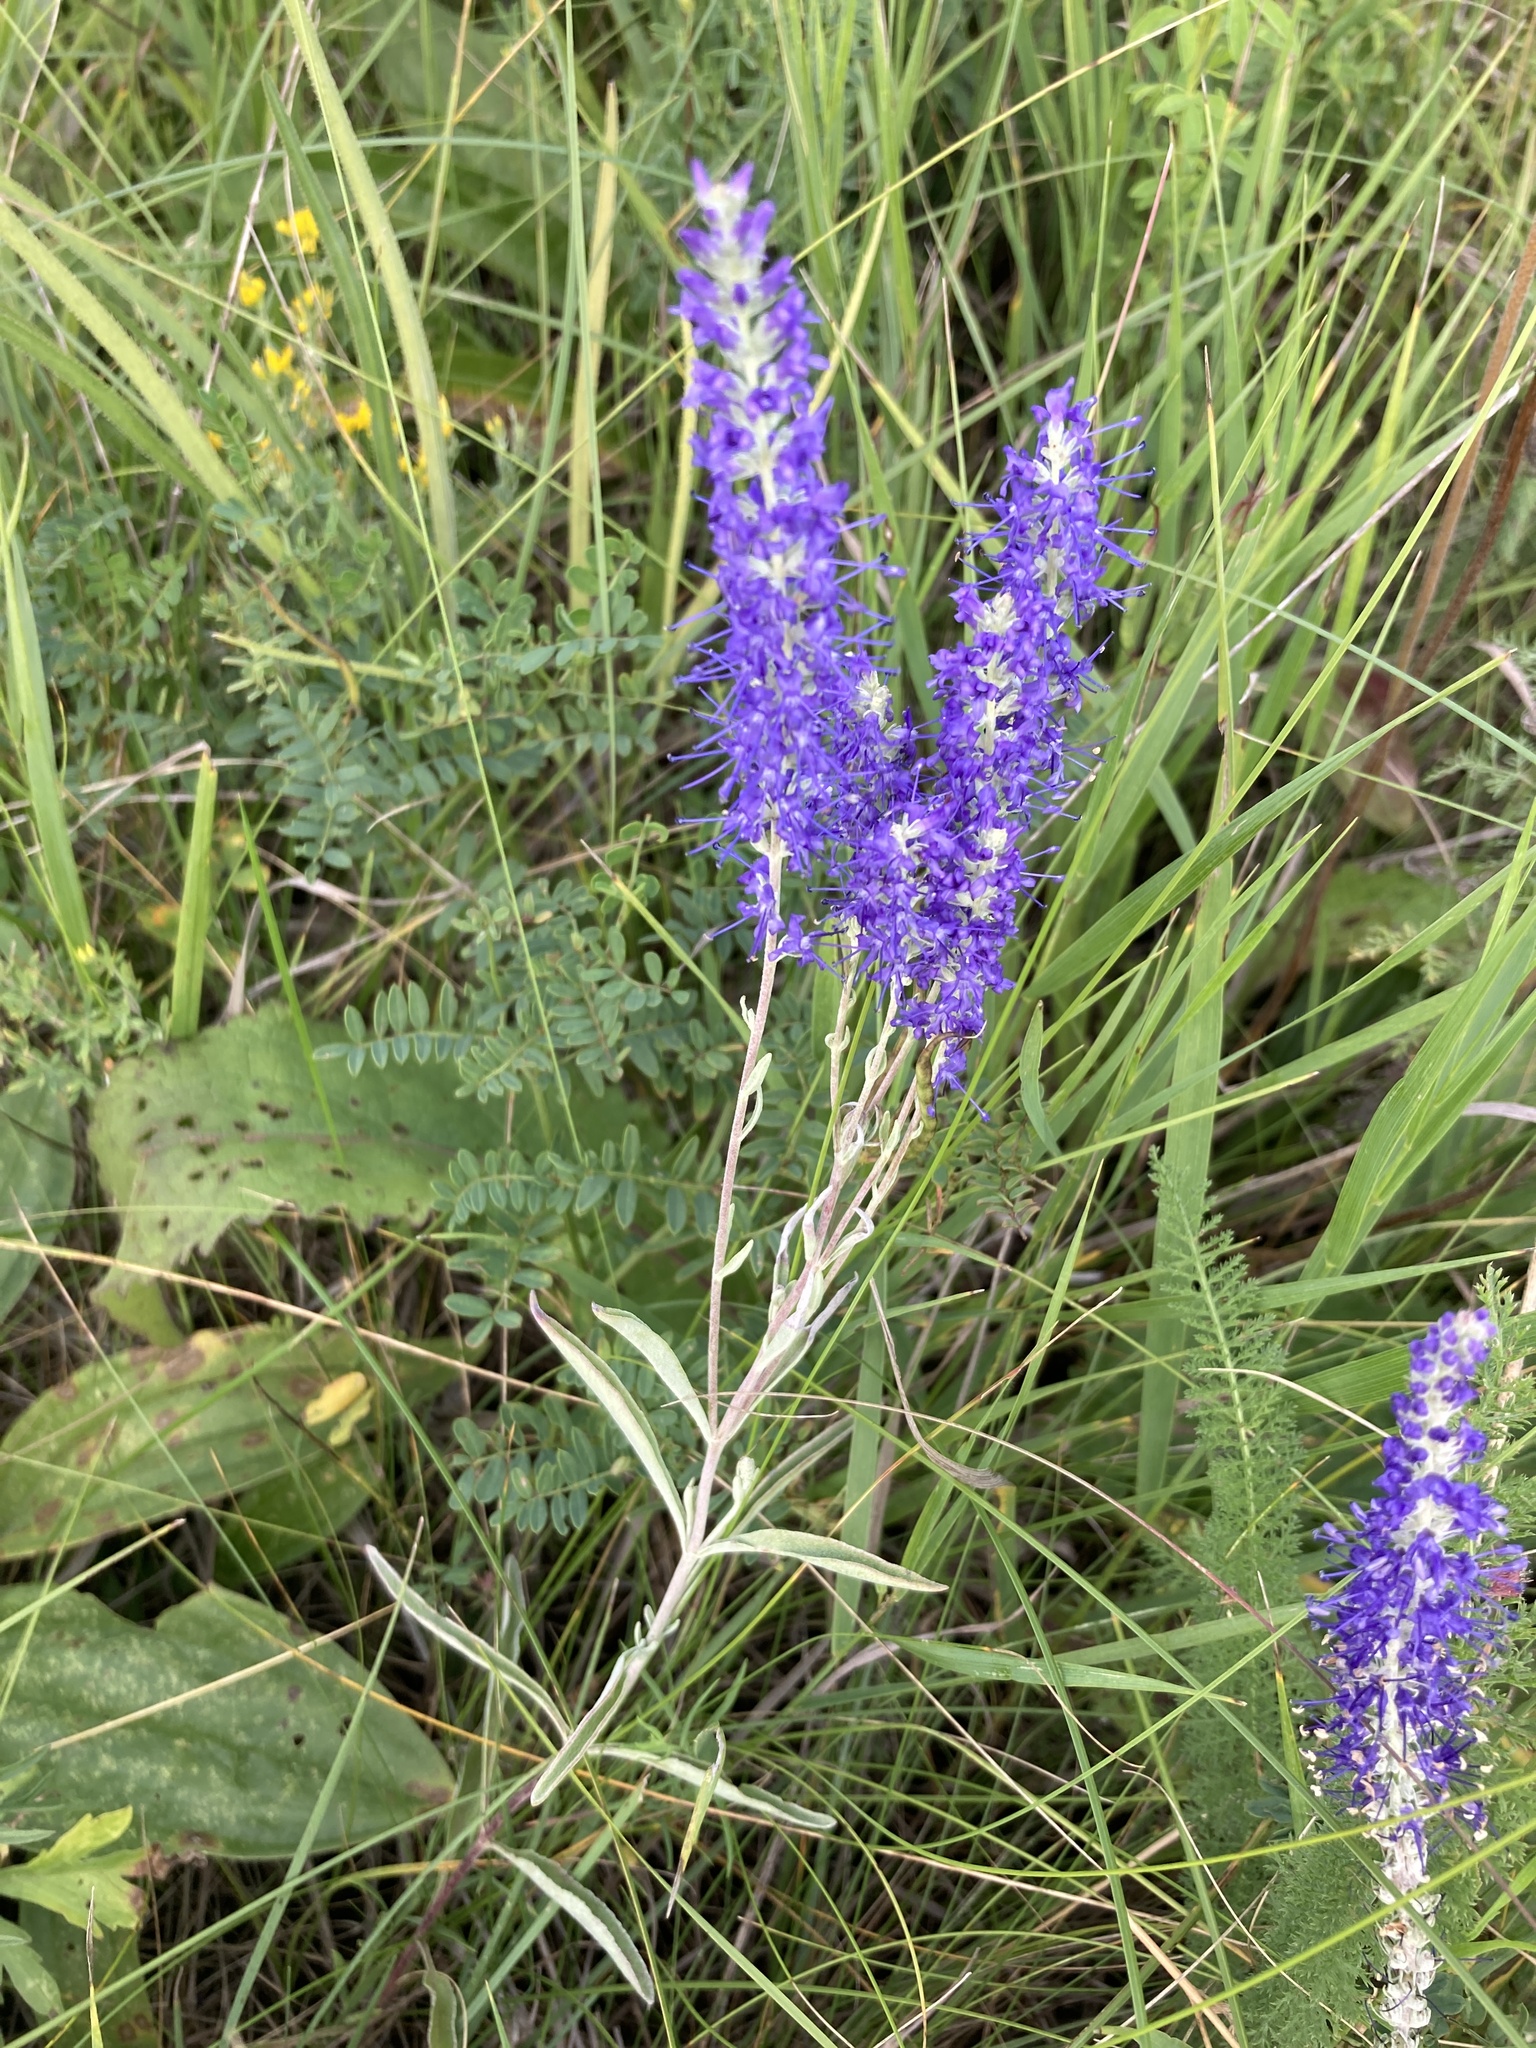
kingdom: Plantae
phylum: Tracheophyta
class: Magnoliopsida
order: Lamiales
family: Plantaginaceae
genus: Veronica
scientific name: Veronica incana
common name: Silver speedwell
